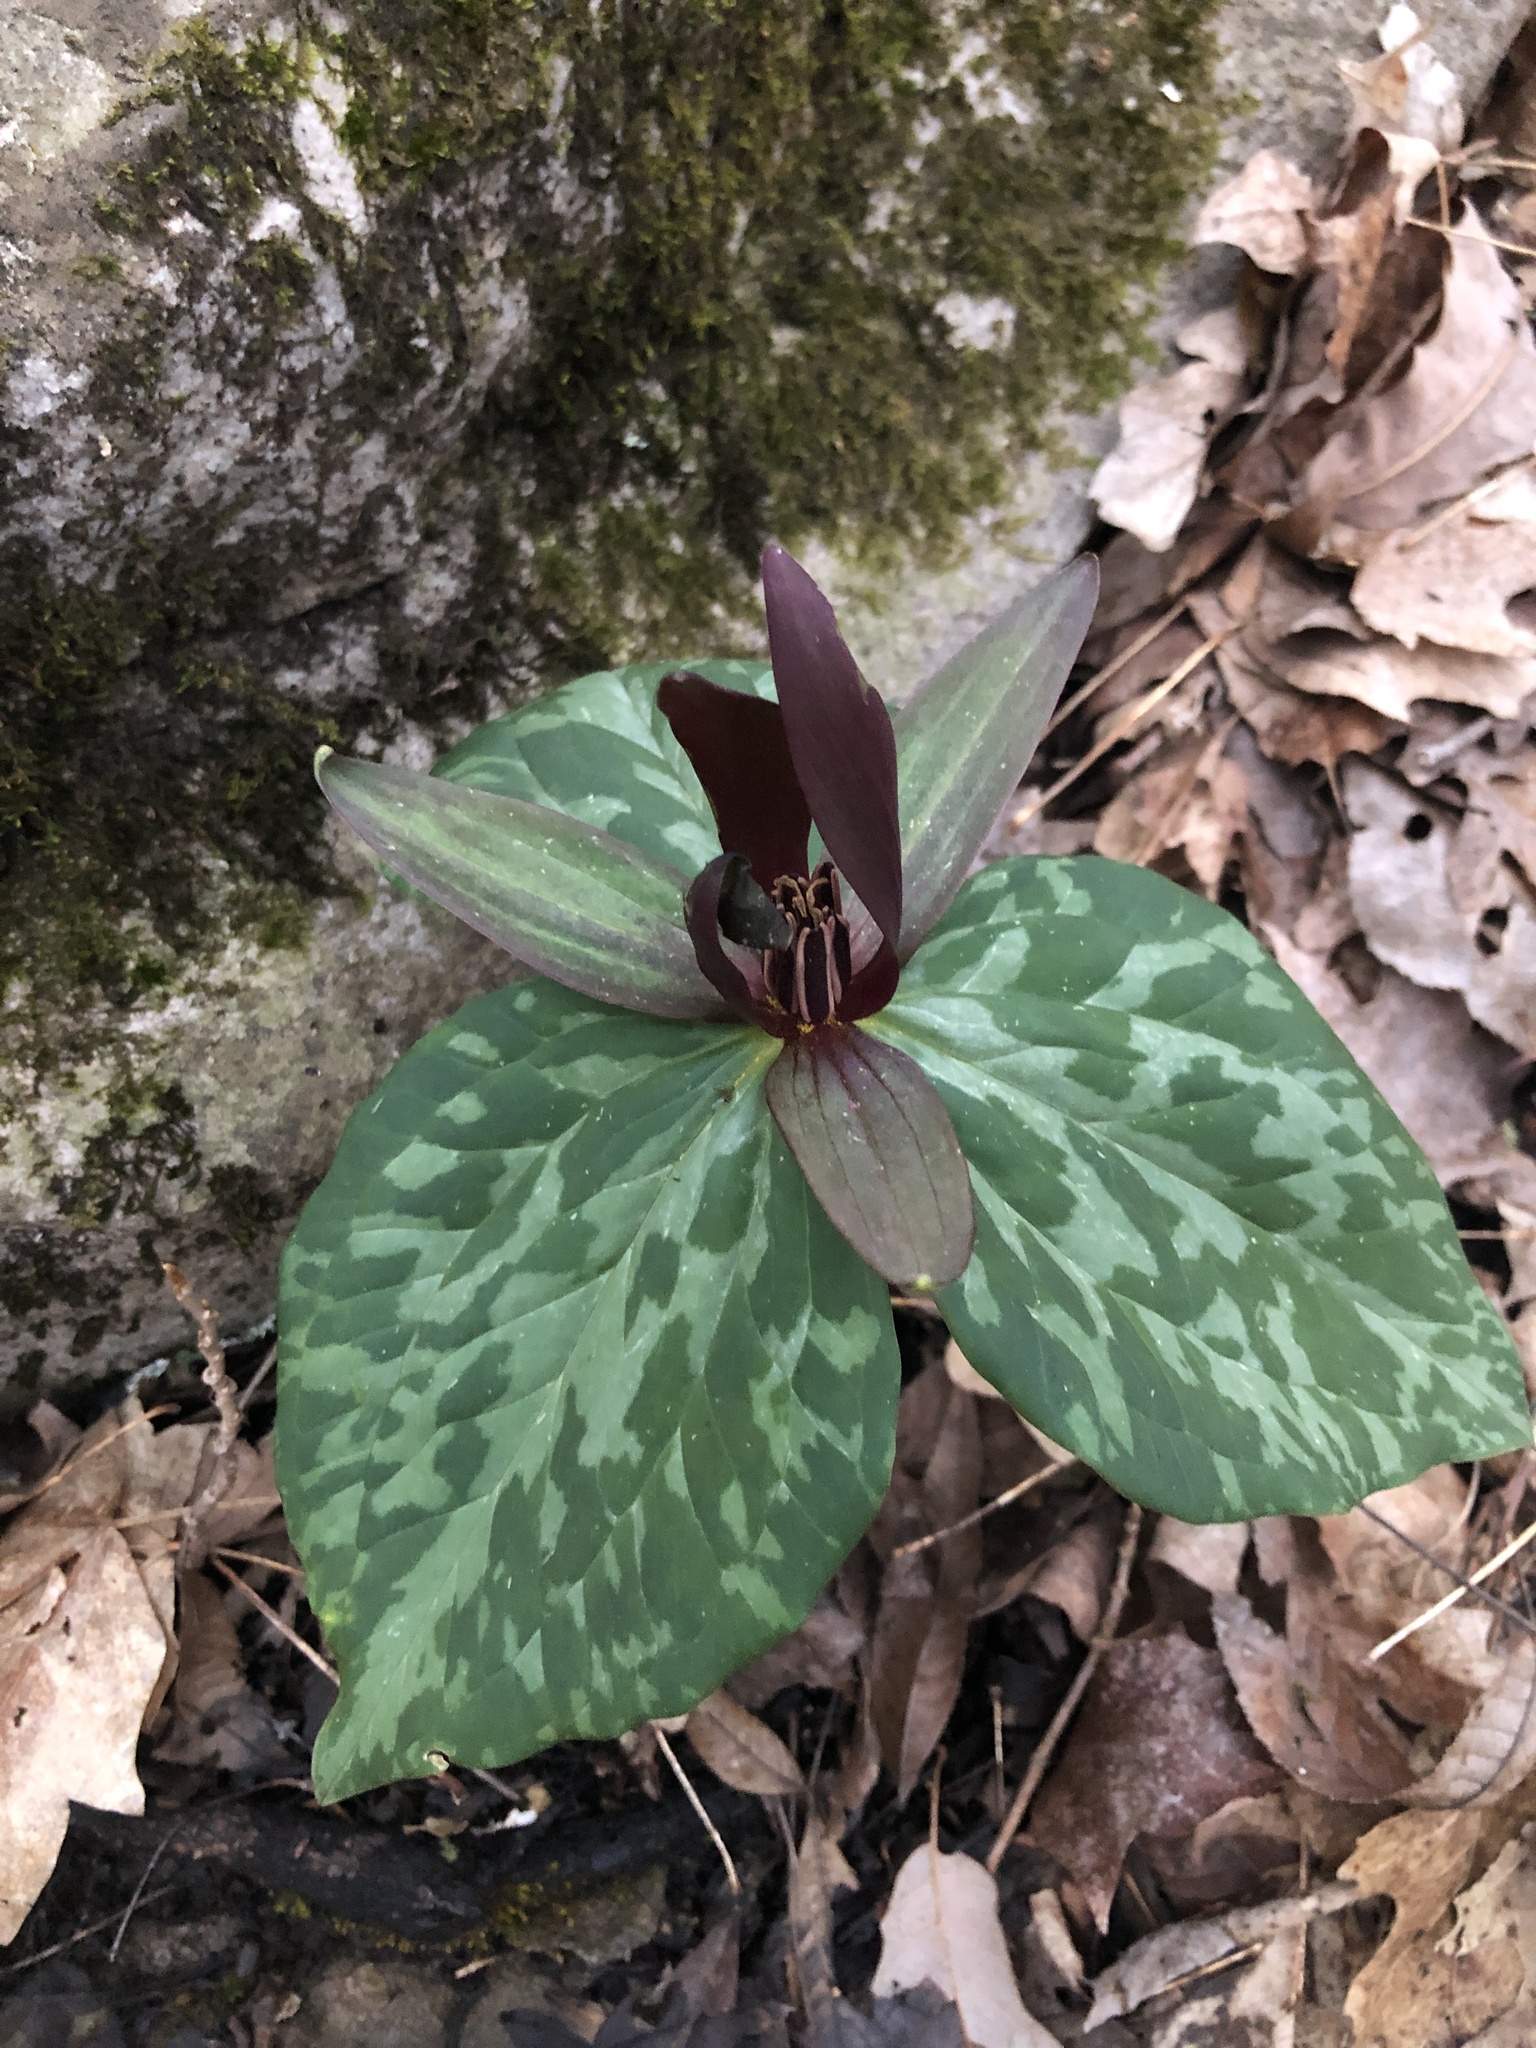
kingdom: Plantae
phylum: Tracheophyta
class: Liliopsida
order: Liliales
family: Melanthiaceae
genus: Trillium
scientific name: Trillium cuneatum
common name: Cuneate trillium
